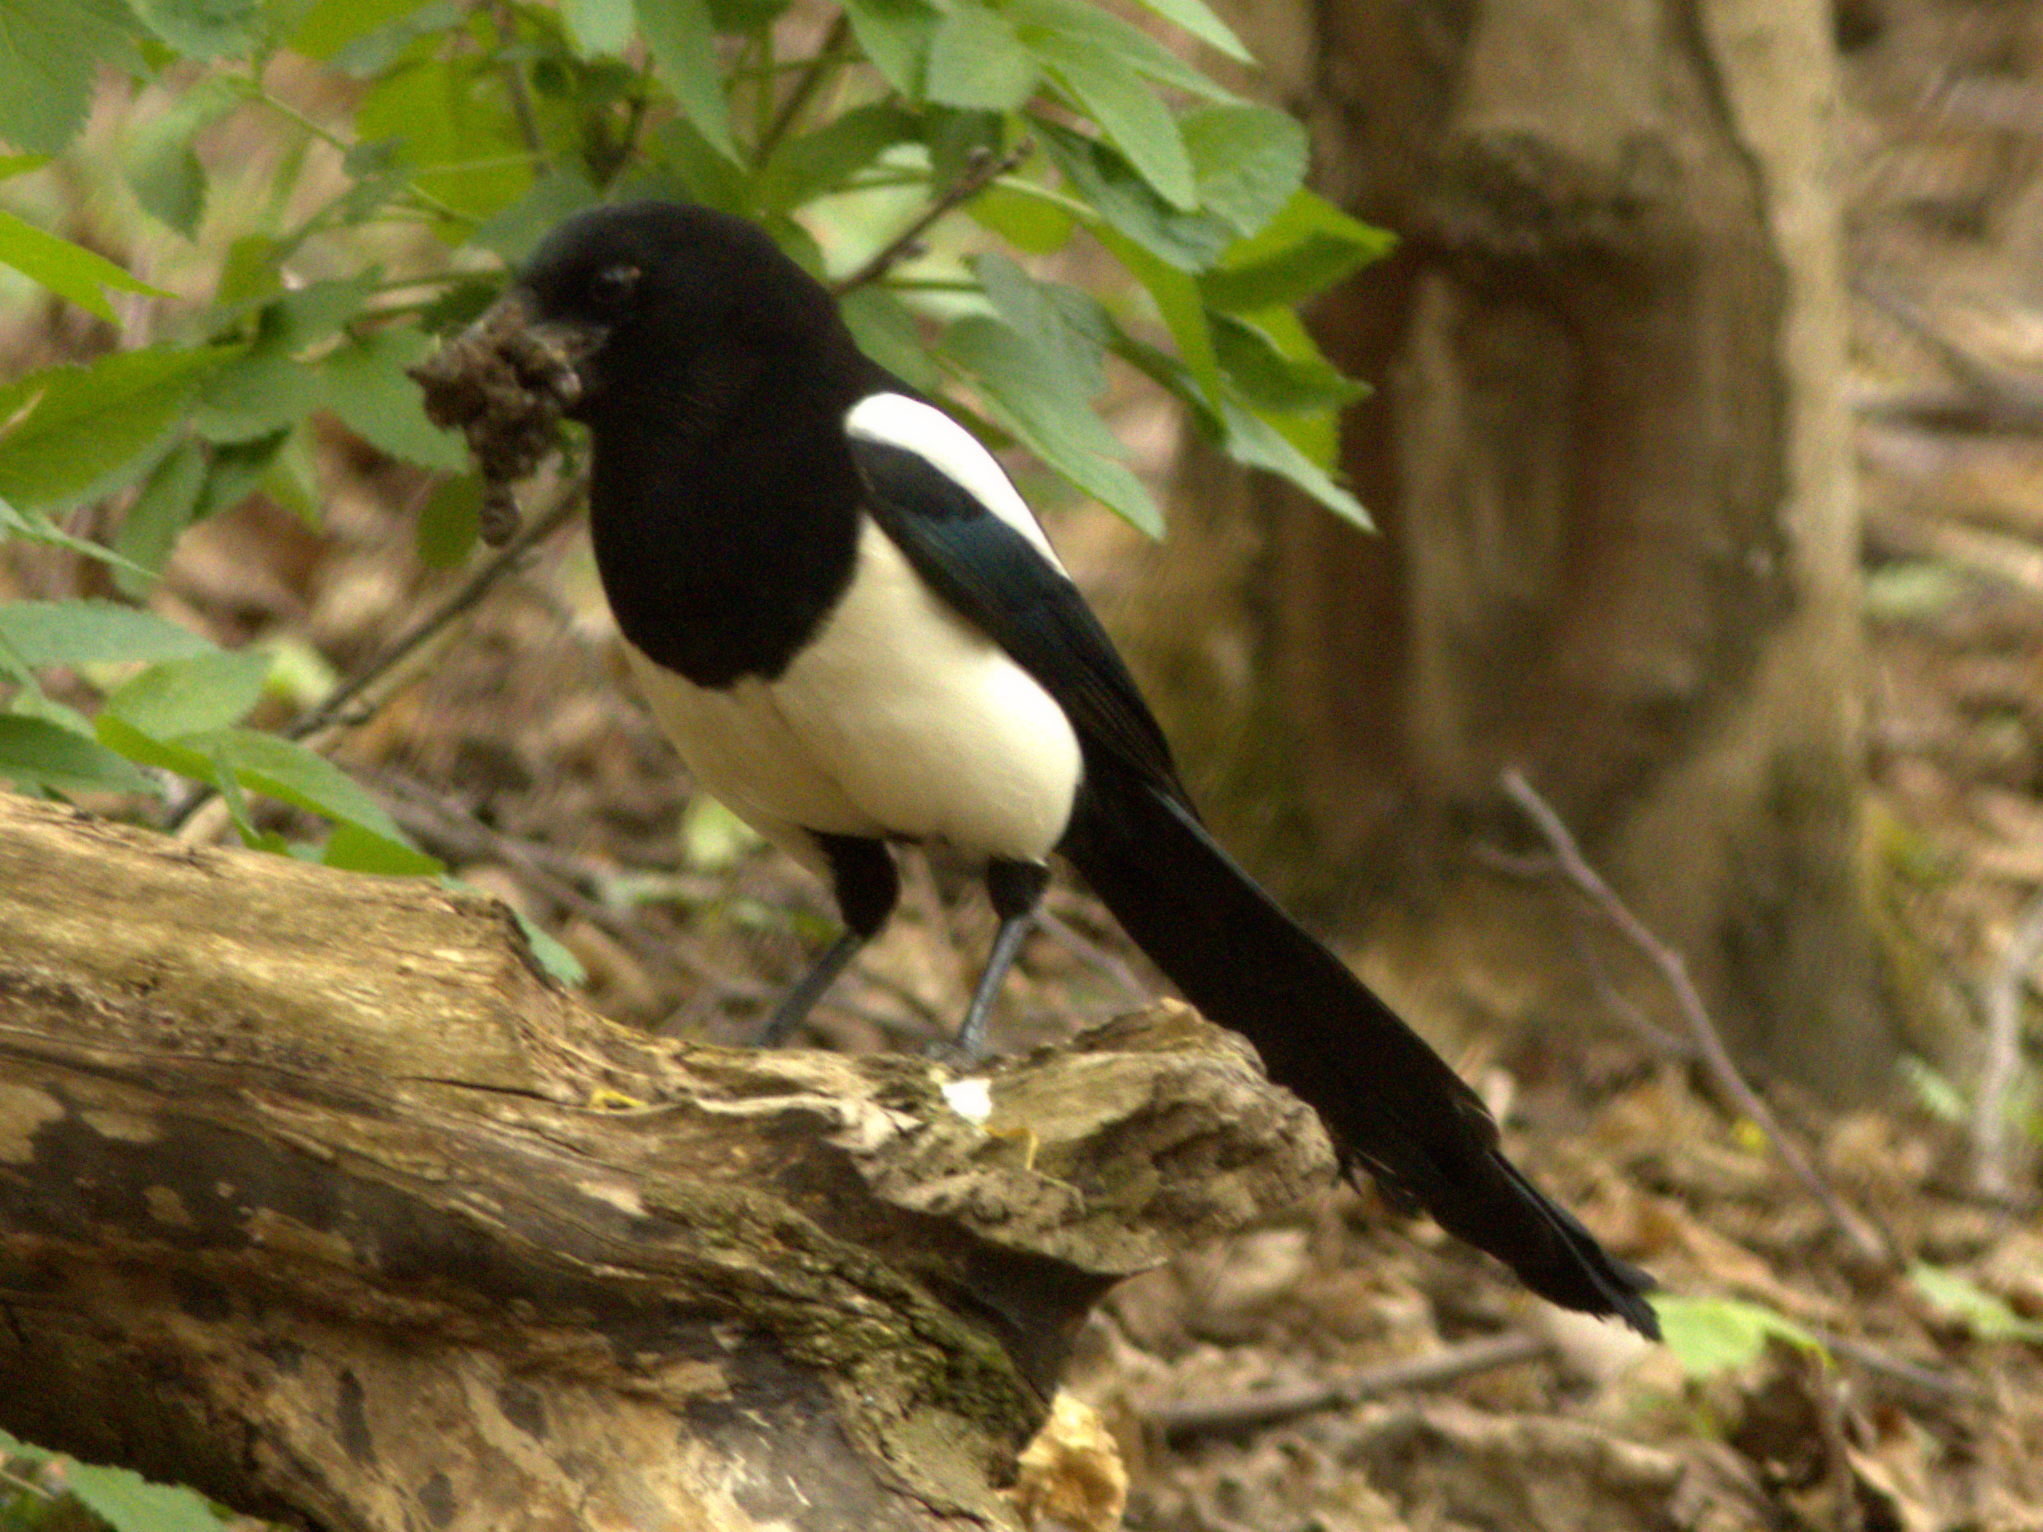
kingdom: Animalia
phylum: Chordata
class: Aves
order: Passeriformes
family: Corvidae
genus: Pica
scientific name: Pica pica
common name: Eurasian magpie
